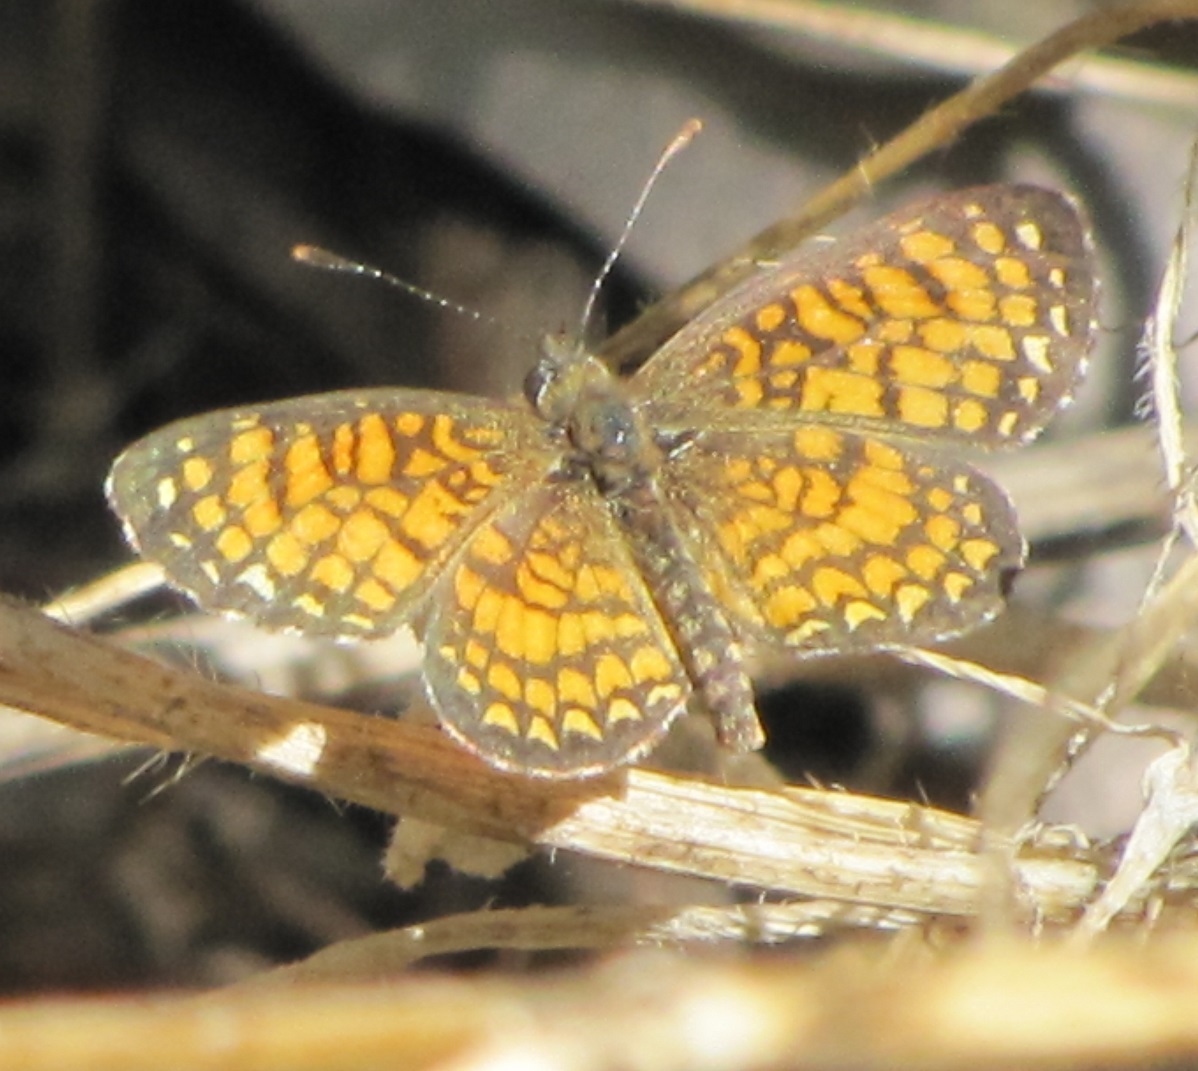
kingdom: Animalia
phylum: Arthropoda
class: Insecta
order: Lepidoptera
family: Nymphalidae
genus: Texola
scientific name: Texola
